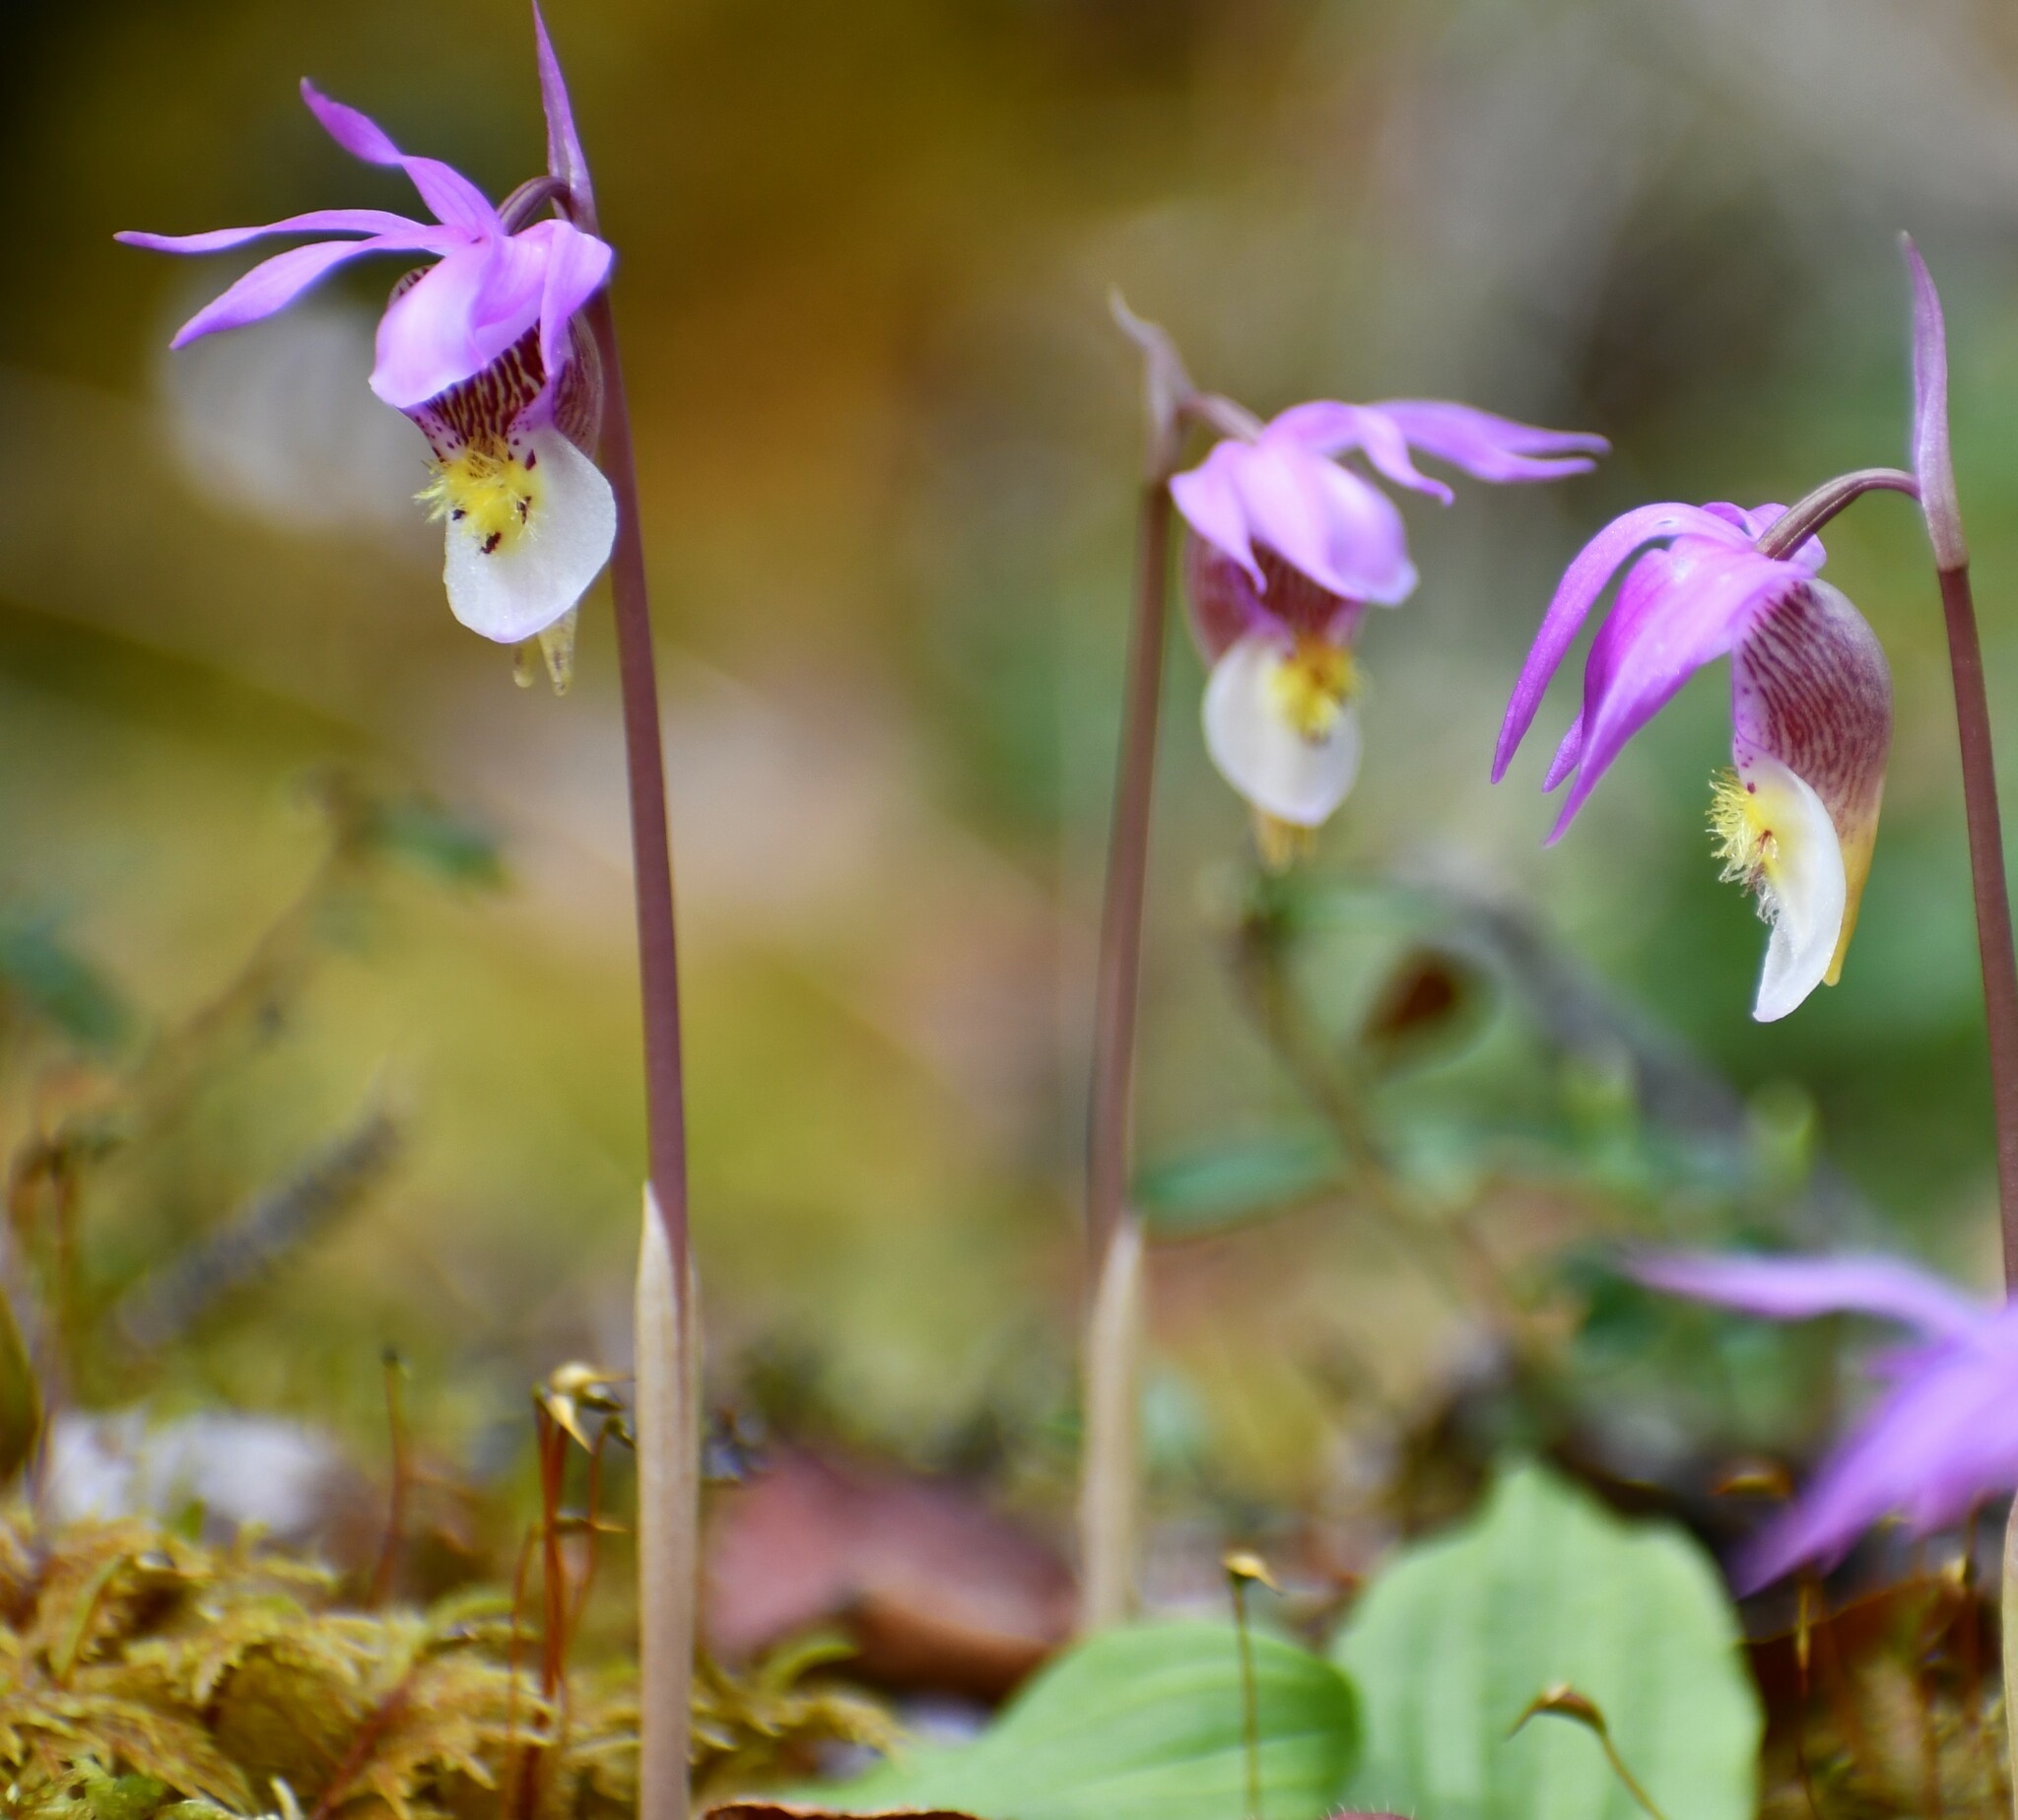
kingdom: Plantae
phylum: Tracheophyta
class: Liliopsida
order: Asparagales
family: Orchidaceae
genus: Calypso
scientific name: Calypso bulbosa
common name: Calypso
